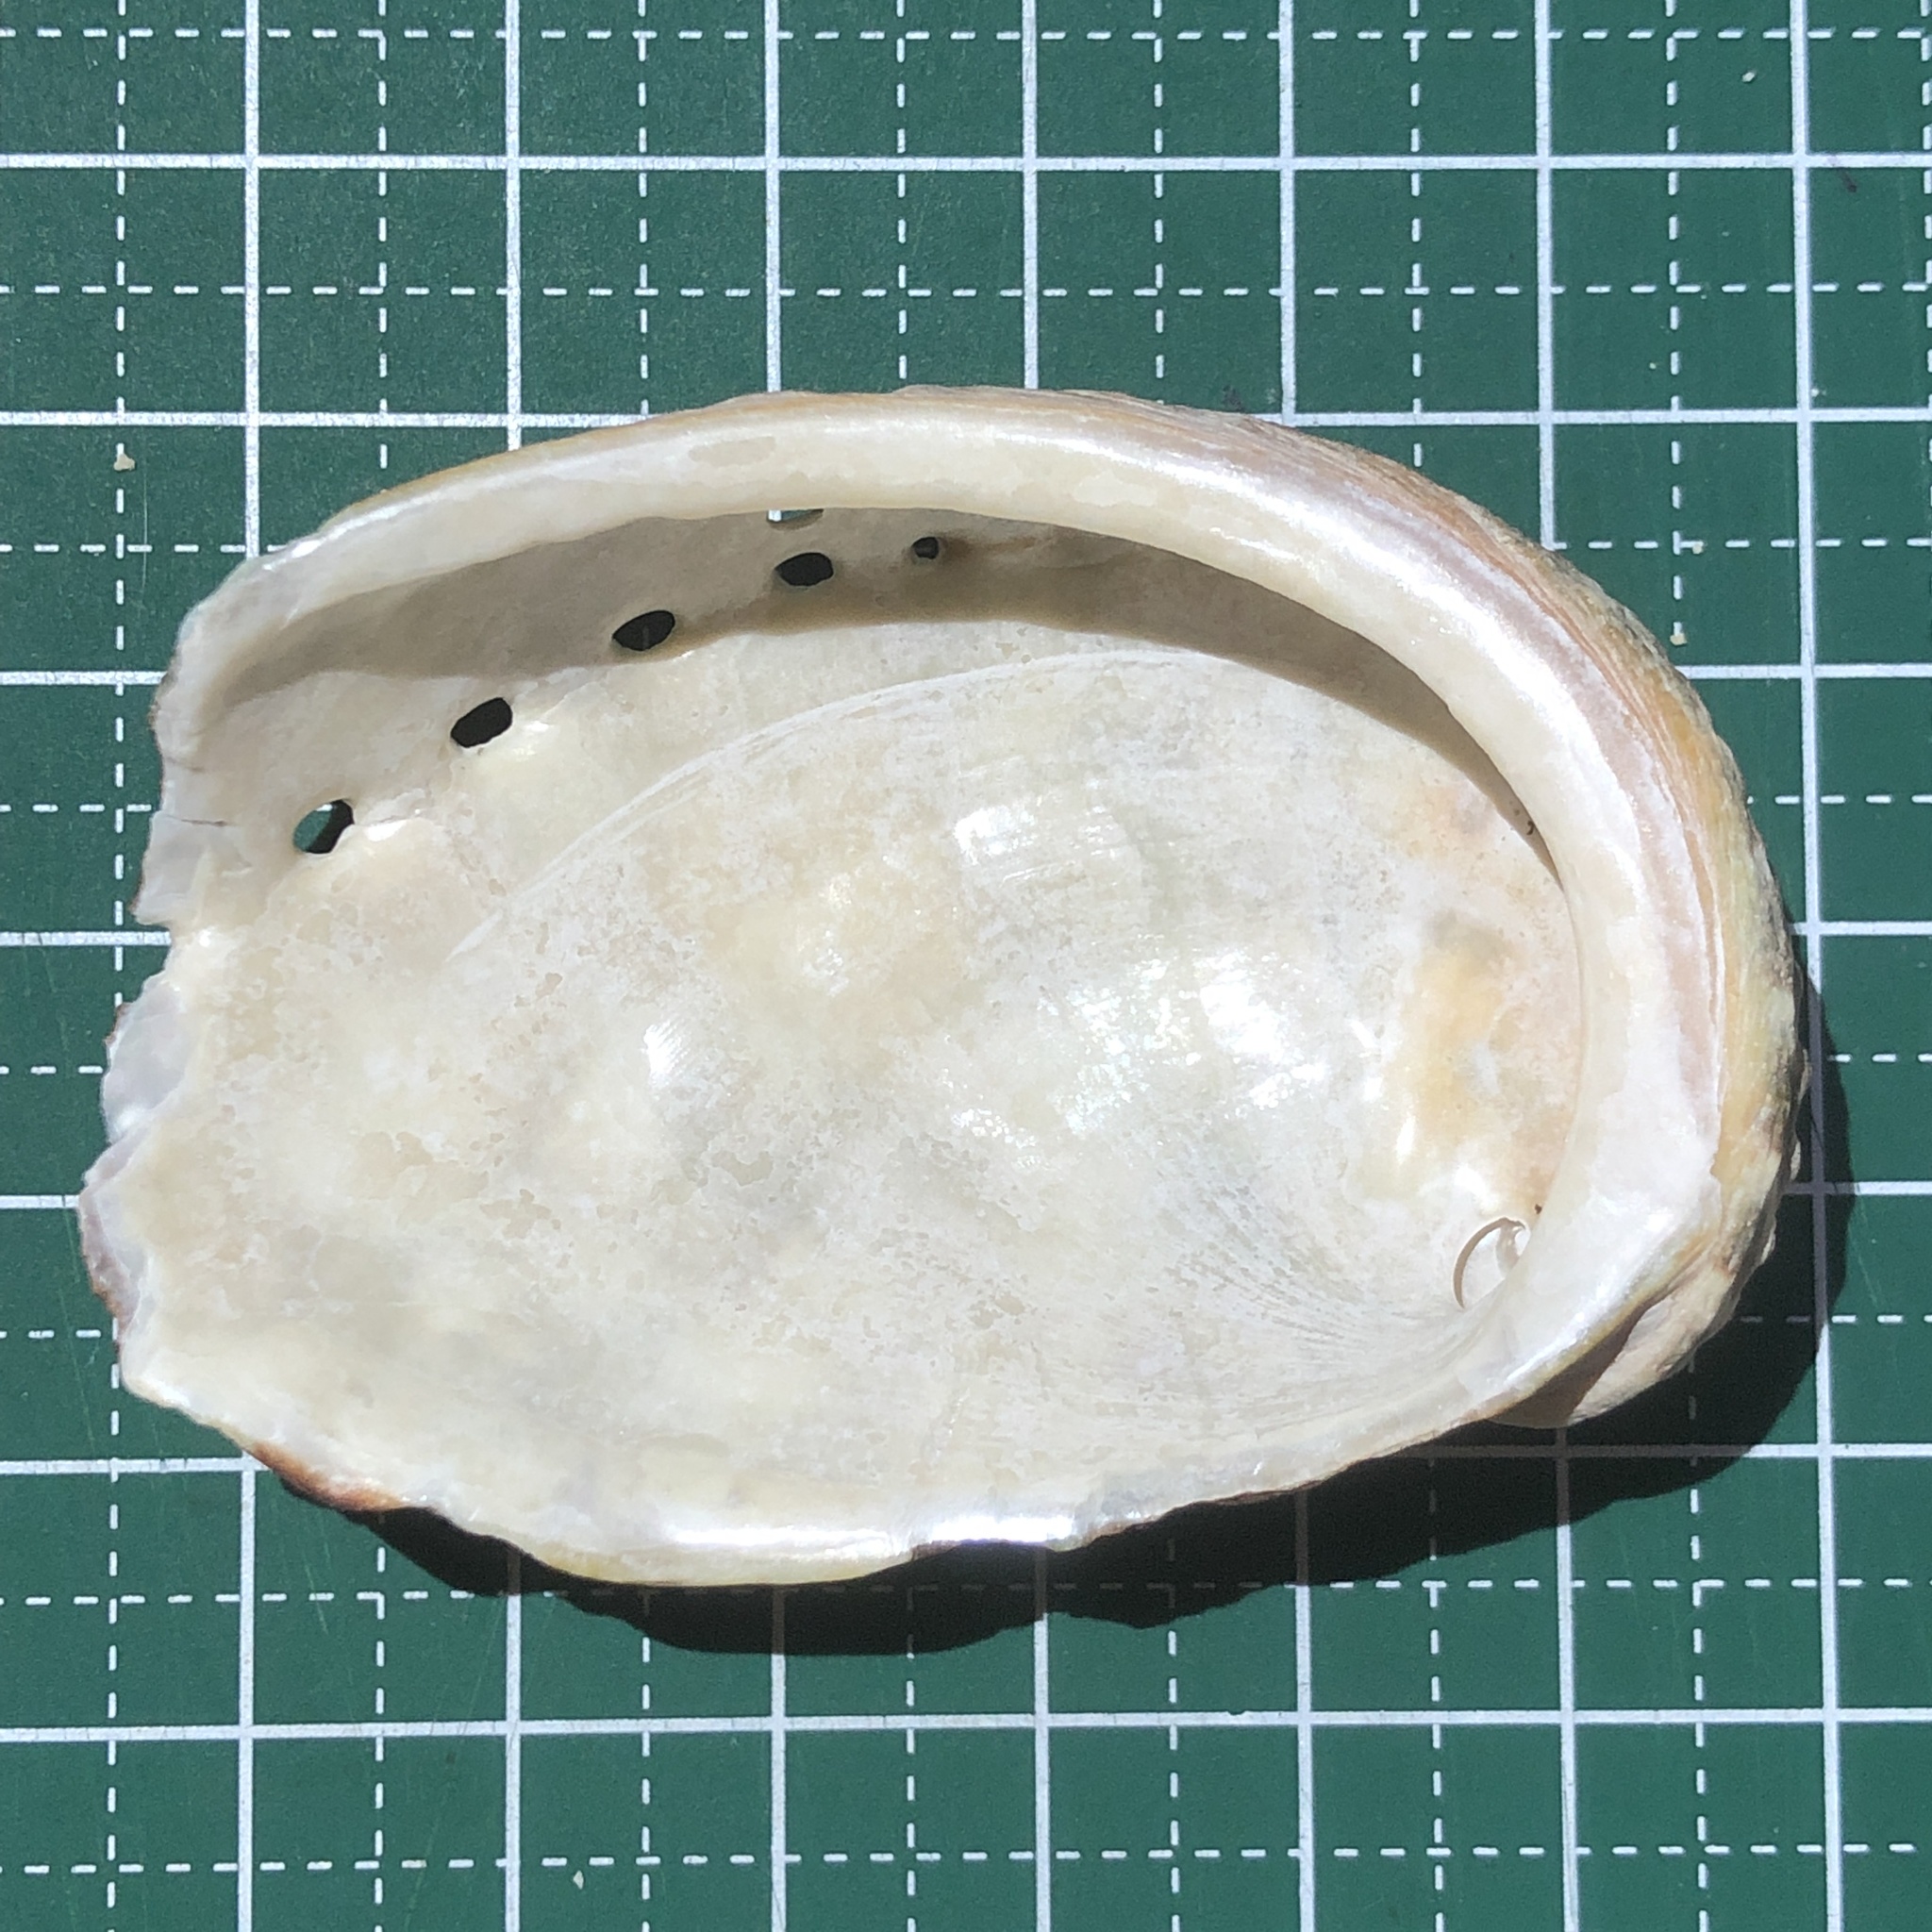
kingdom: Animalia
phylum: Mollusca
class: Gastropoda
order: Lepetellida
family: Haliotidae
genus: Haliotis
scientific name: Haliotis varia
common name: Variable abalone
